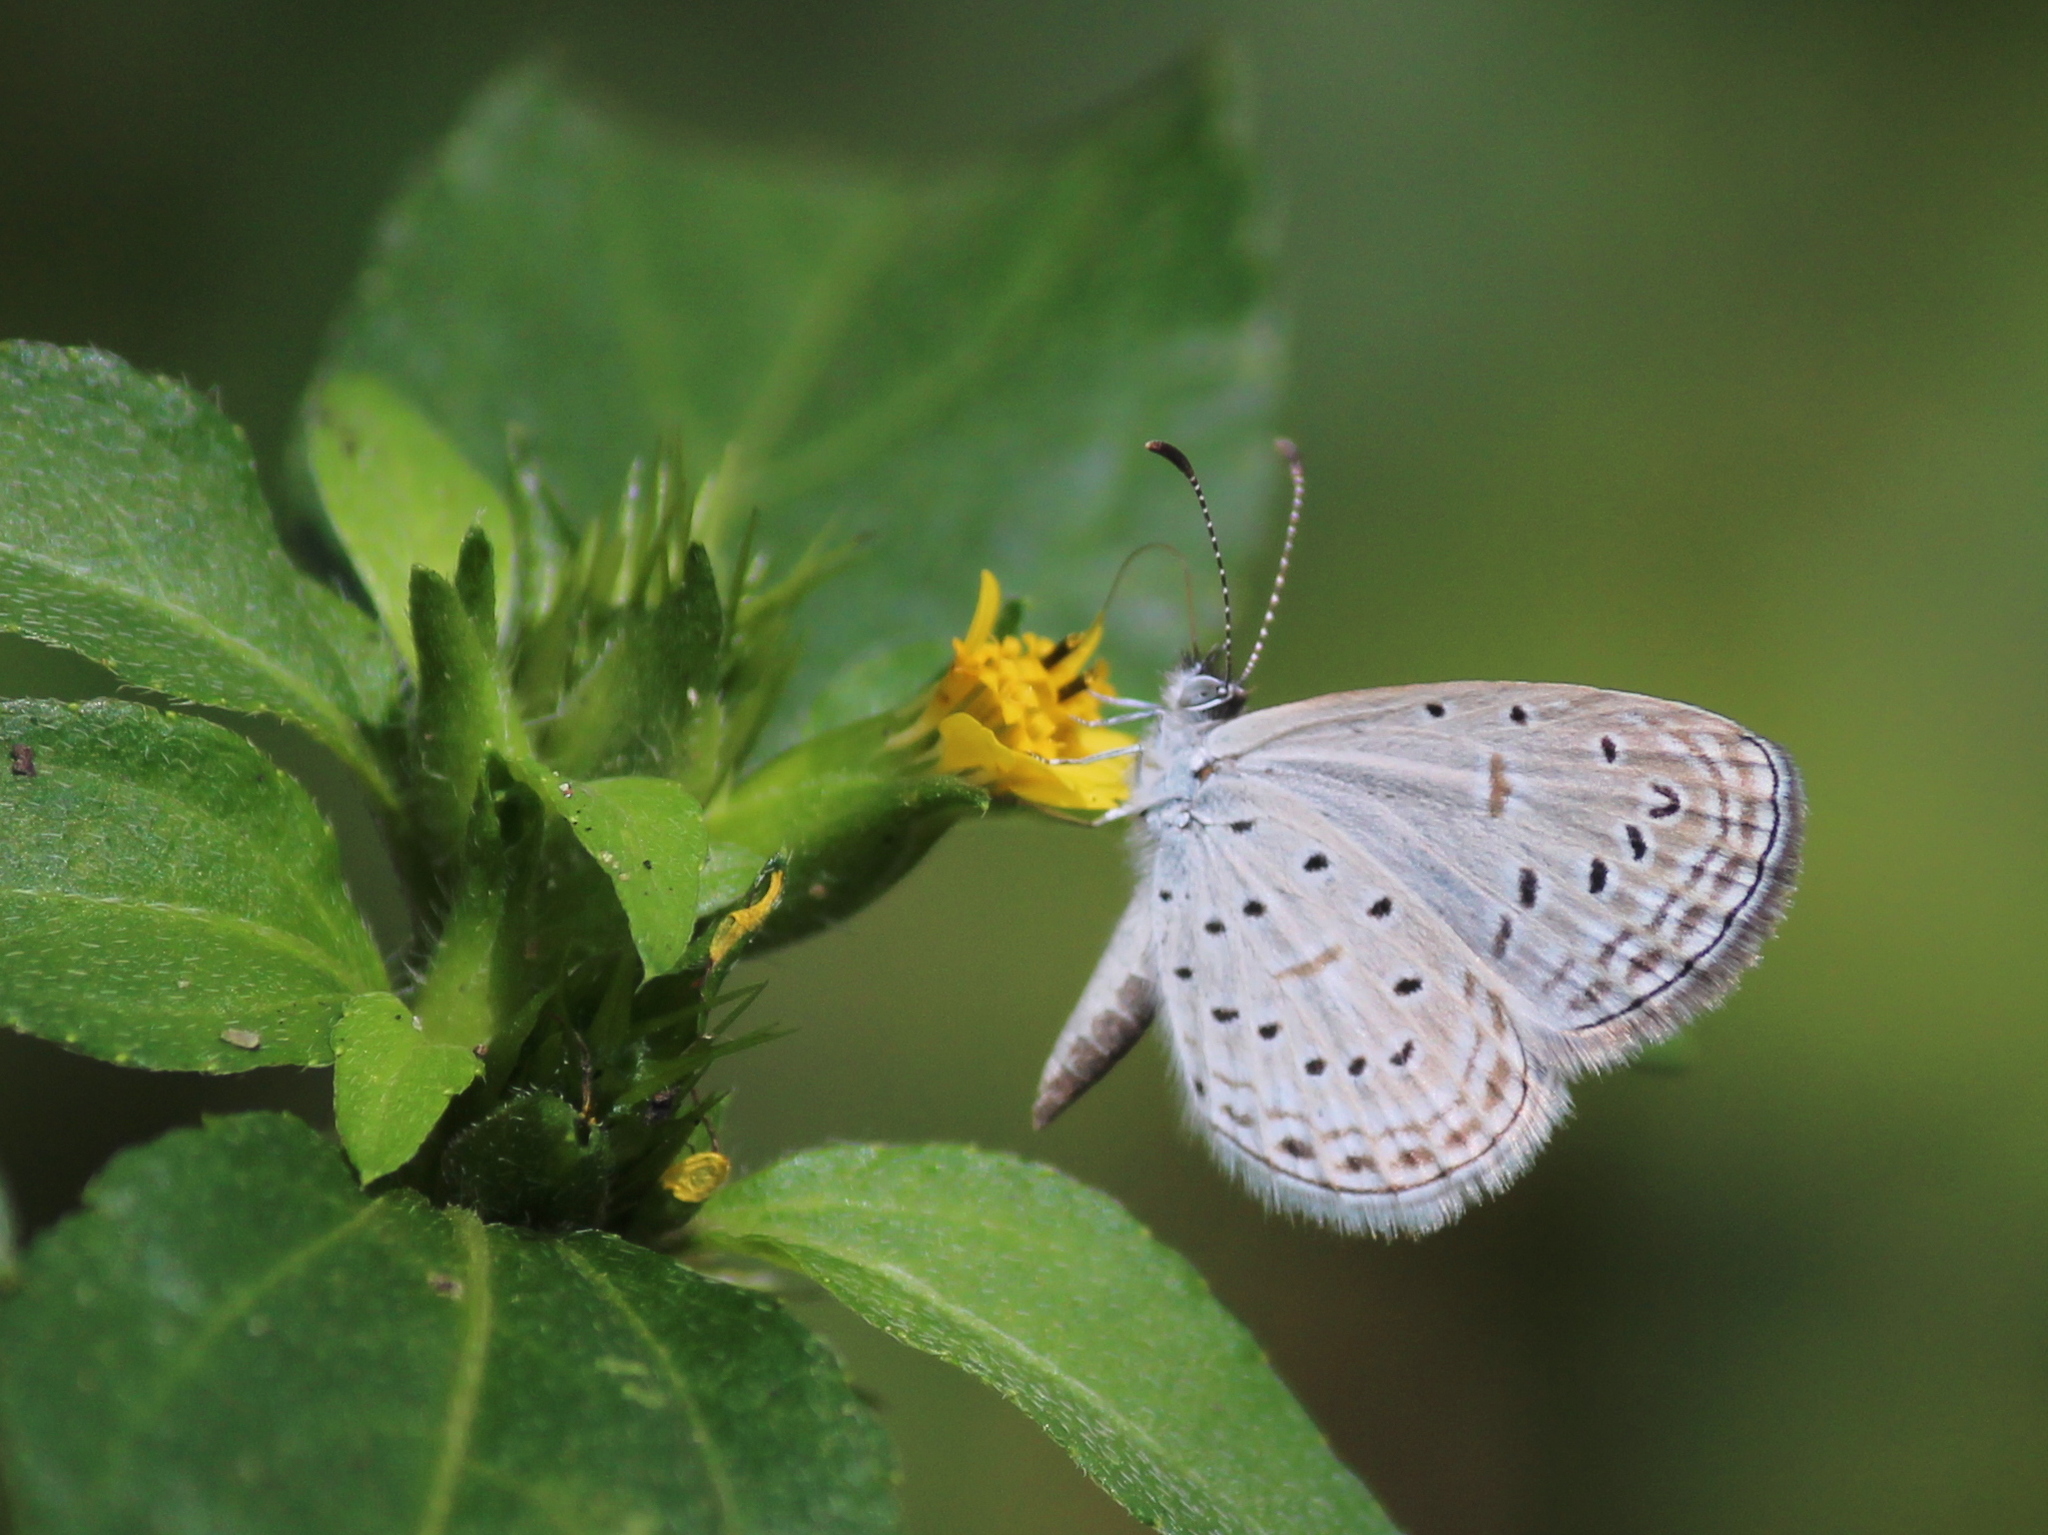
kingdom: Animalia
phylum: Arthropoda
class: Insecta
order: Lepidoptera
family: Lycaenidae
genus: Zizula
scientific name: Zizula hylax
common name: Gaika blue
